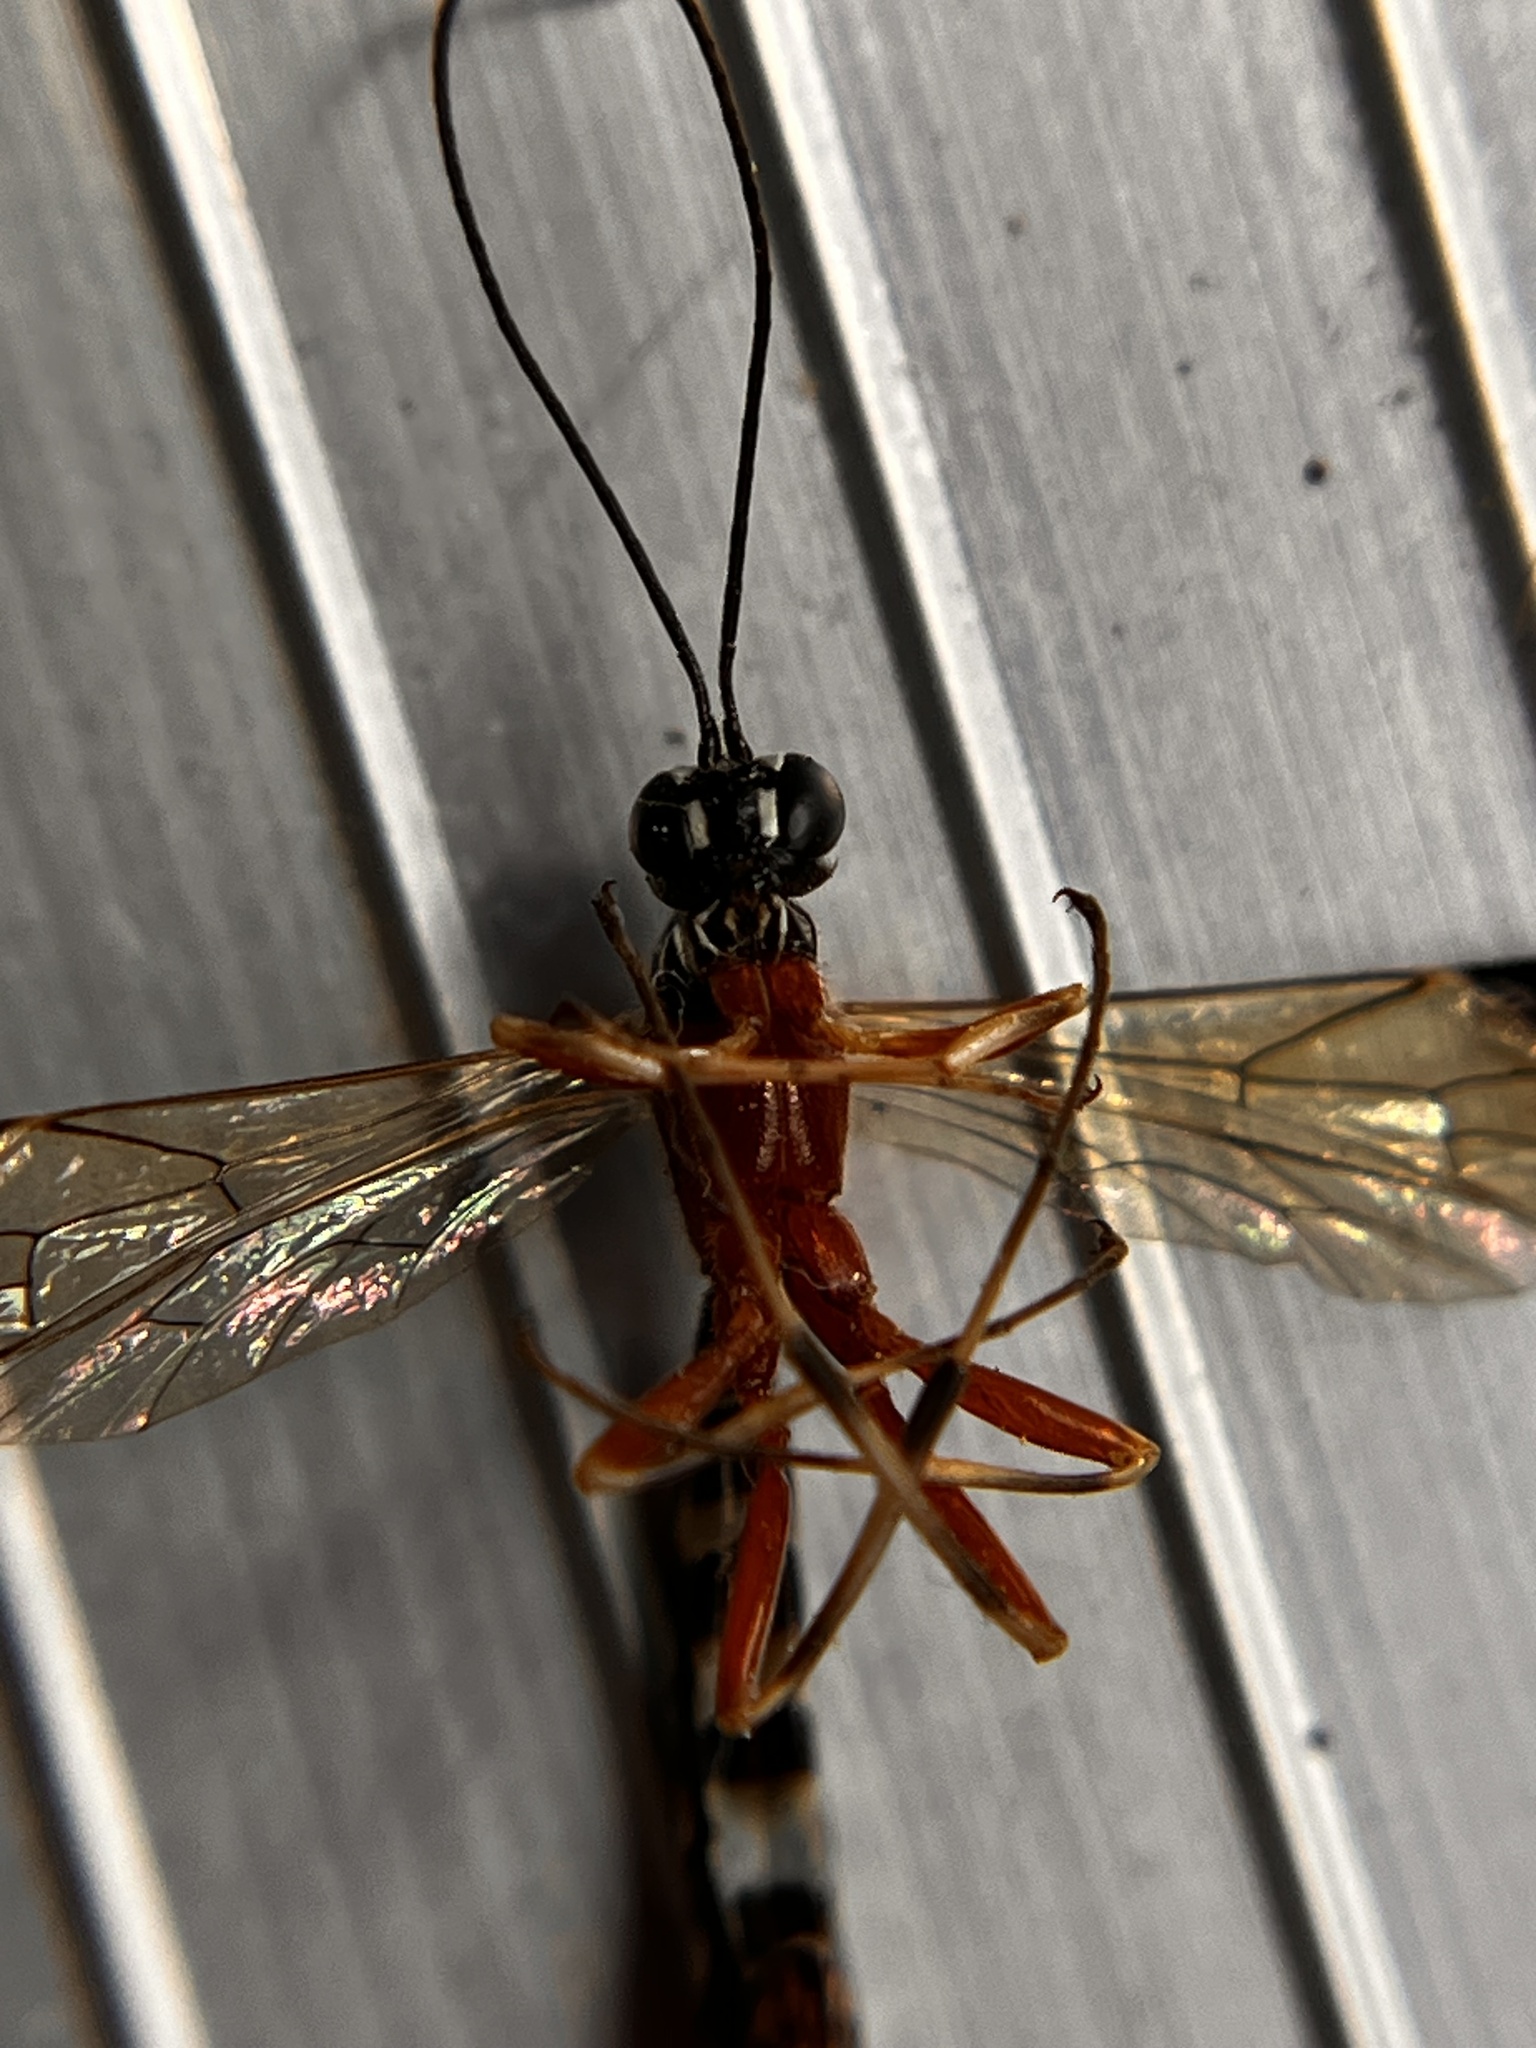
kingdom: Animalia
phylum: Arthropoda
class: Insecta
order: Hymenoptera
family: Ichneumonidae
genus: Rhyssella
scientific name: Rhyssella humida
